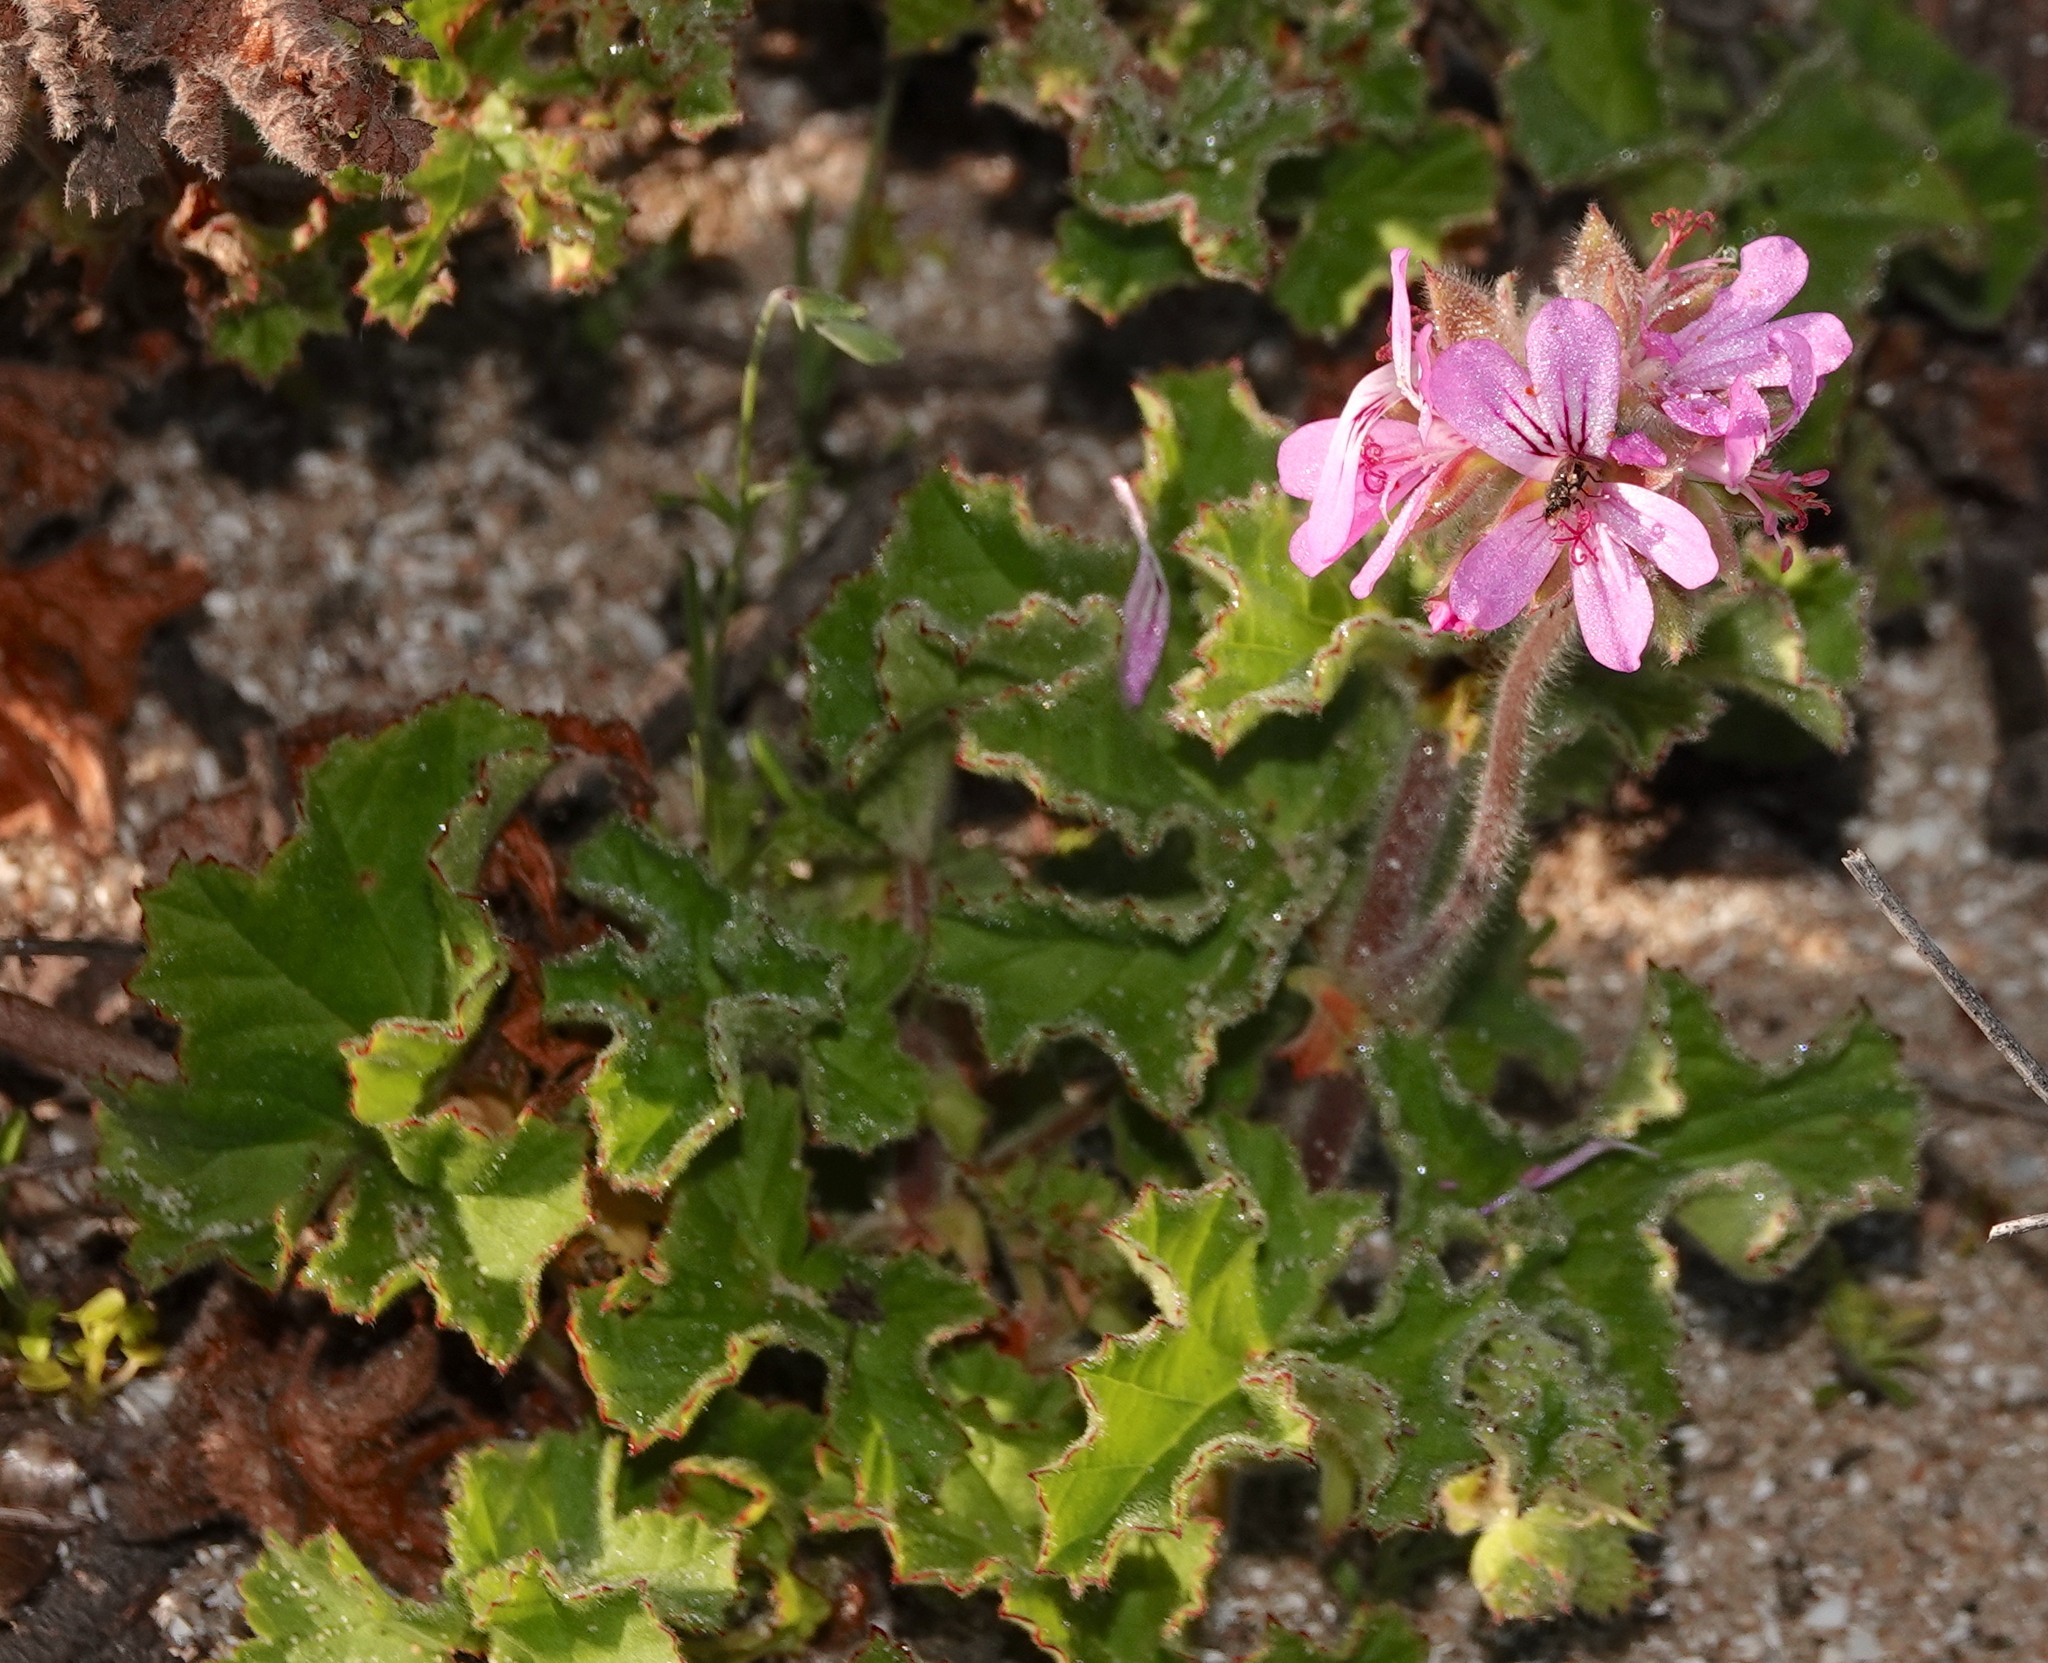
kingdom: Plantae
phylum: Tracheophyta
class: Magnoliopsida
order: Geraniales
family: Geraniaceae
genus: Pelargonium
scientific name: Pelargonium capitatum
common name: Rose scented geranium
